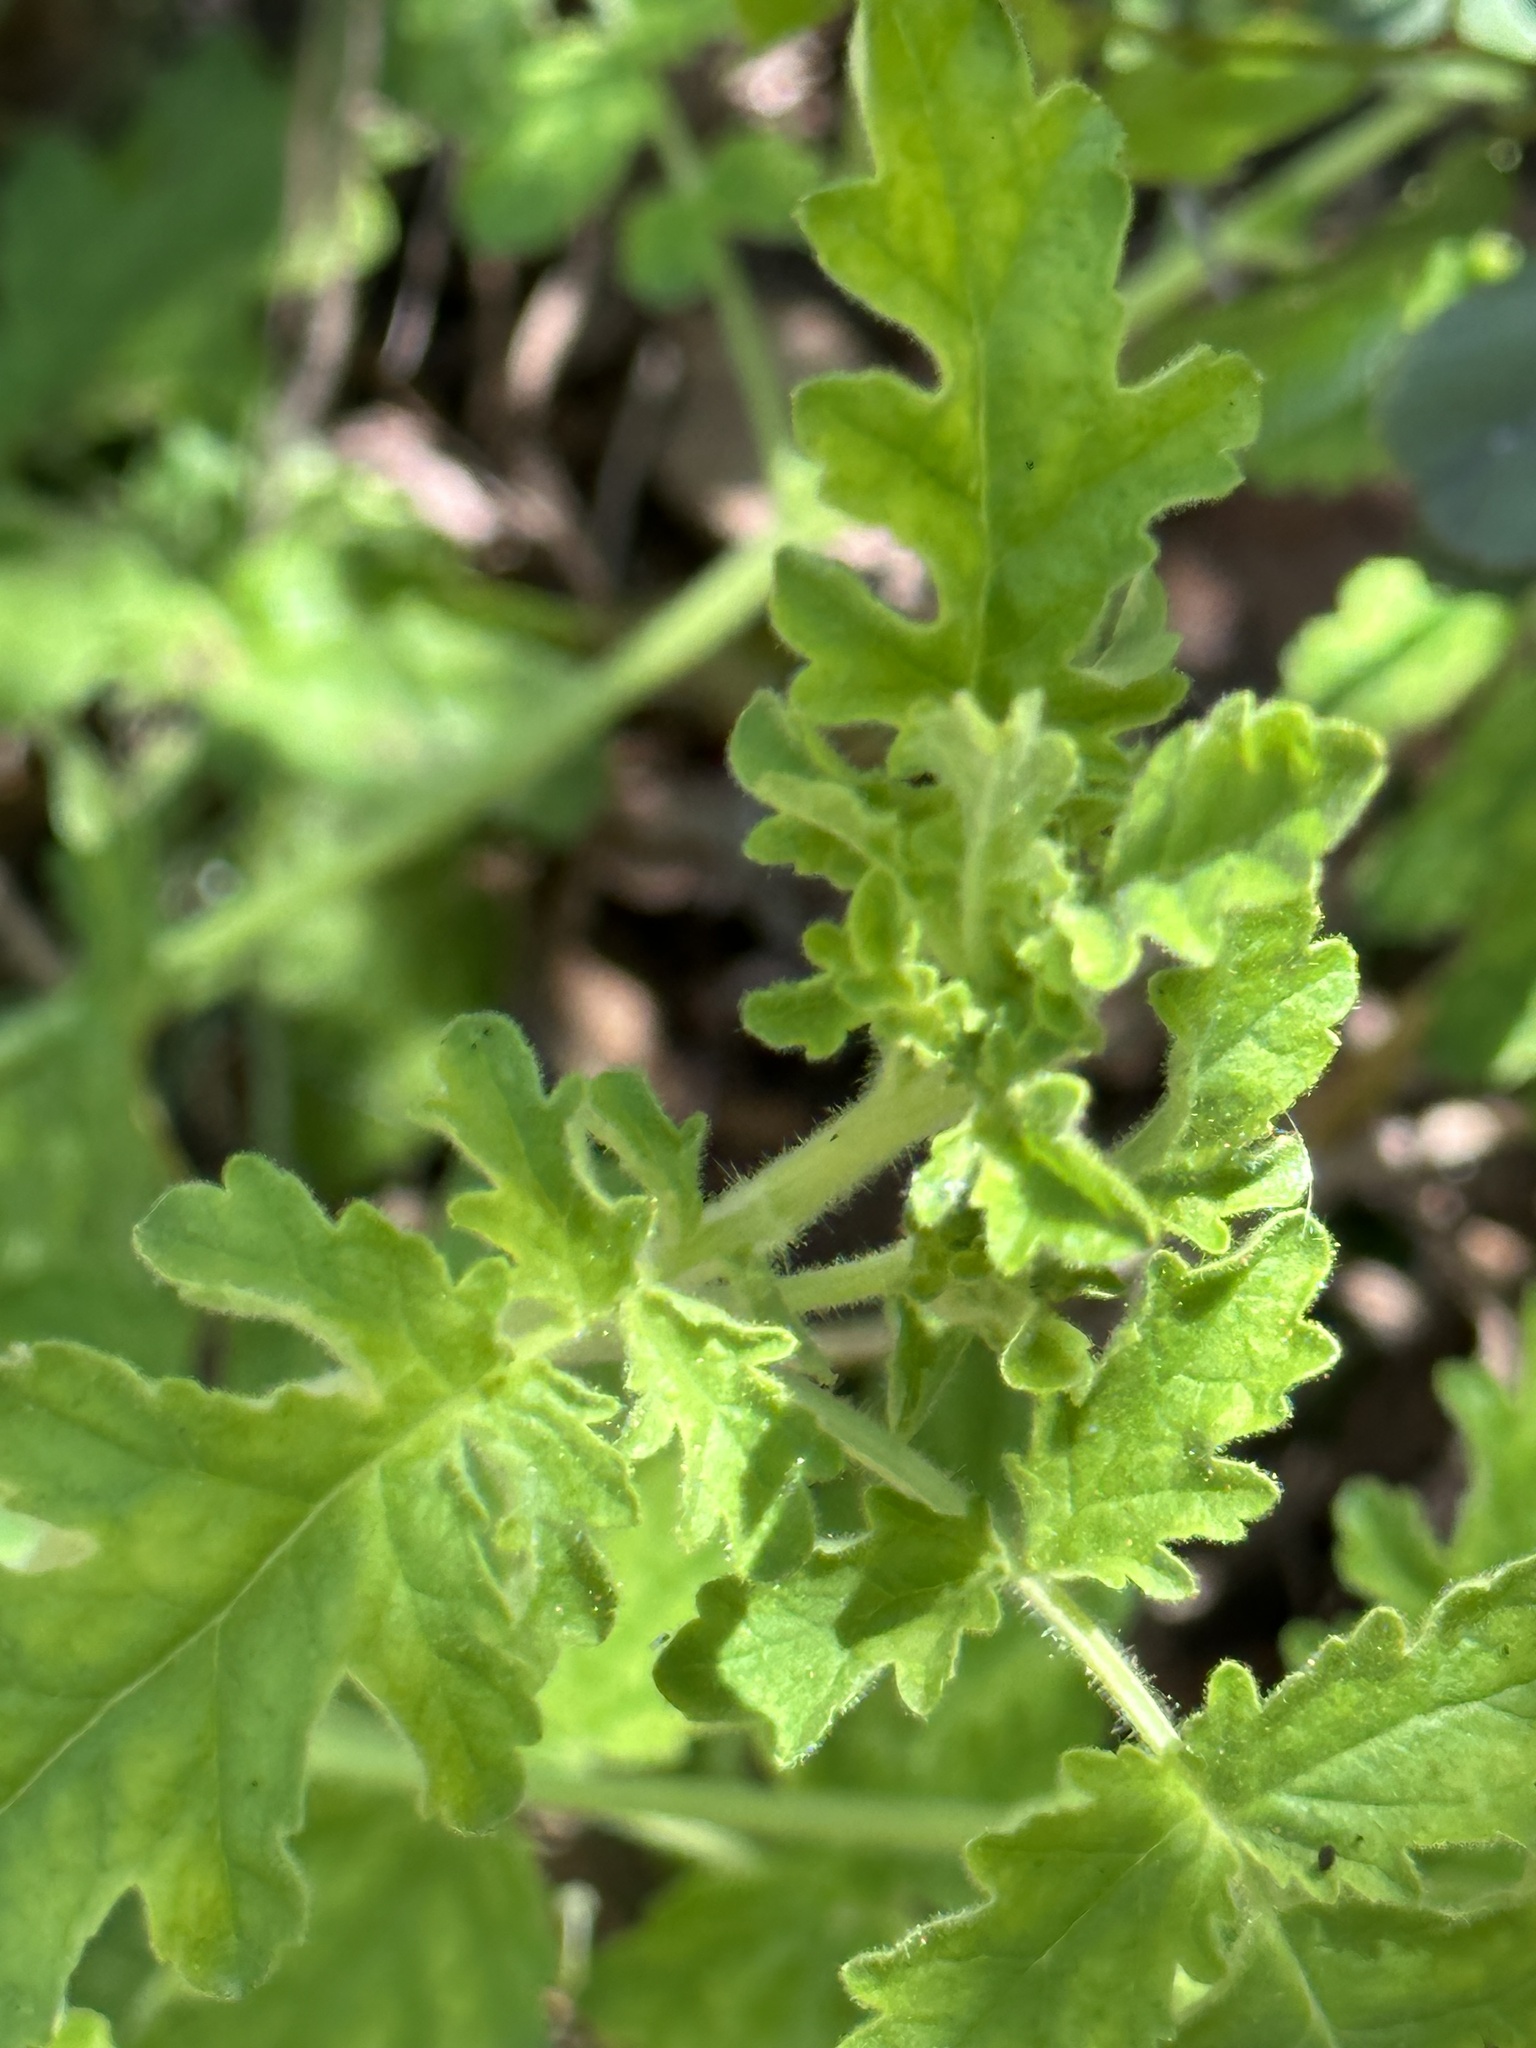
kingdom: Plantae
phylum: Tracheophyta
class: Magnoliopsida
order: Boraginales
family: Hydrophyllaceae
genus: Phacelia
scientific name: Phacelia ramosissima
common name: Branching phacelia
